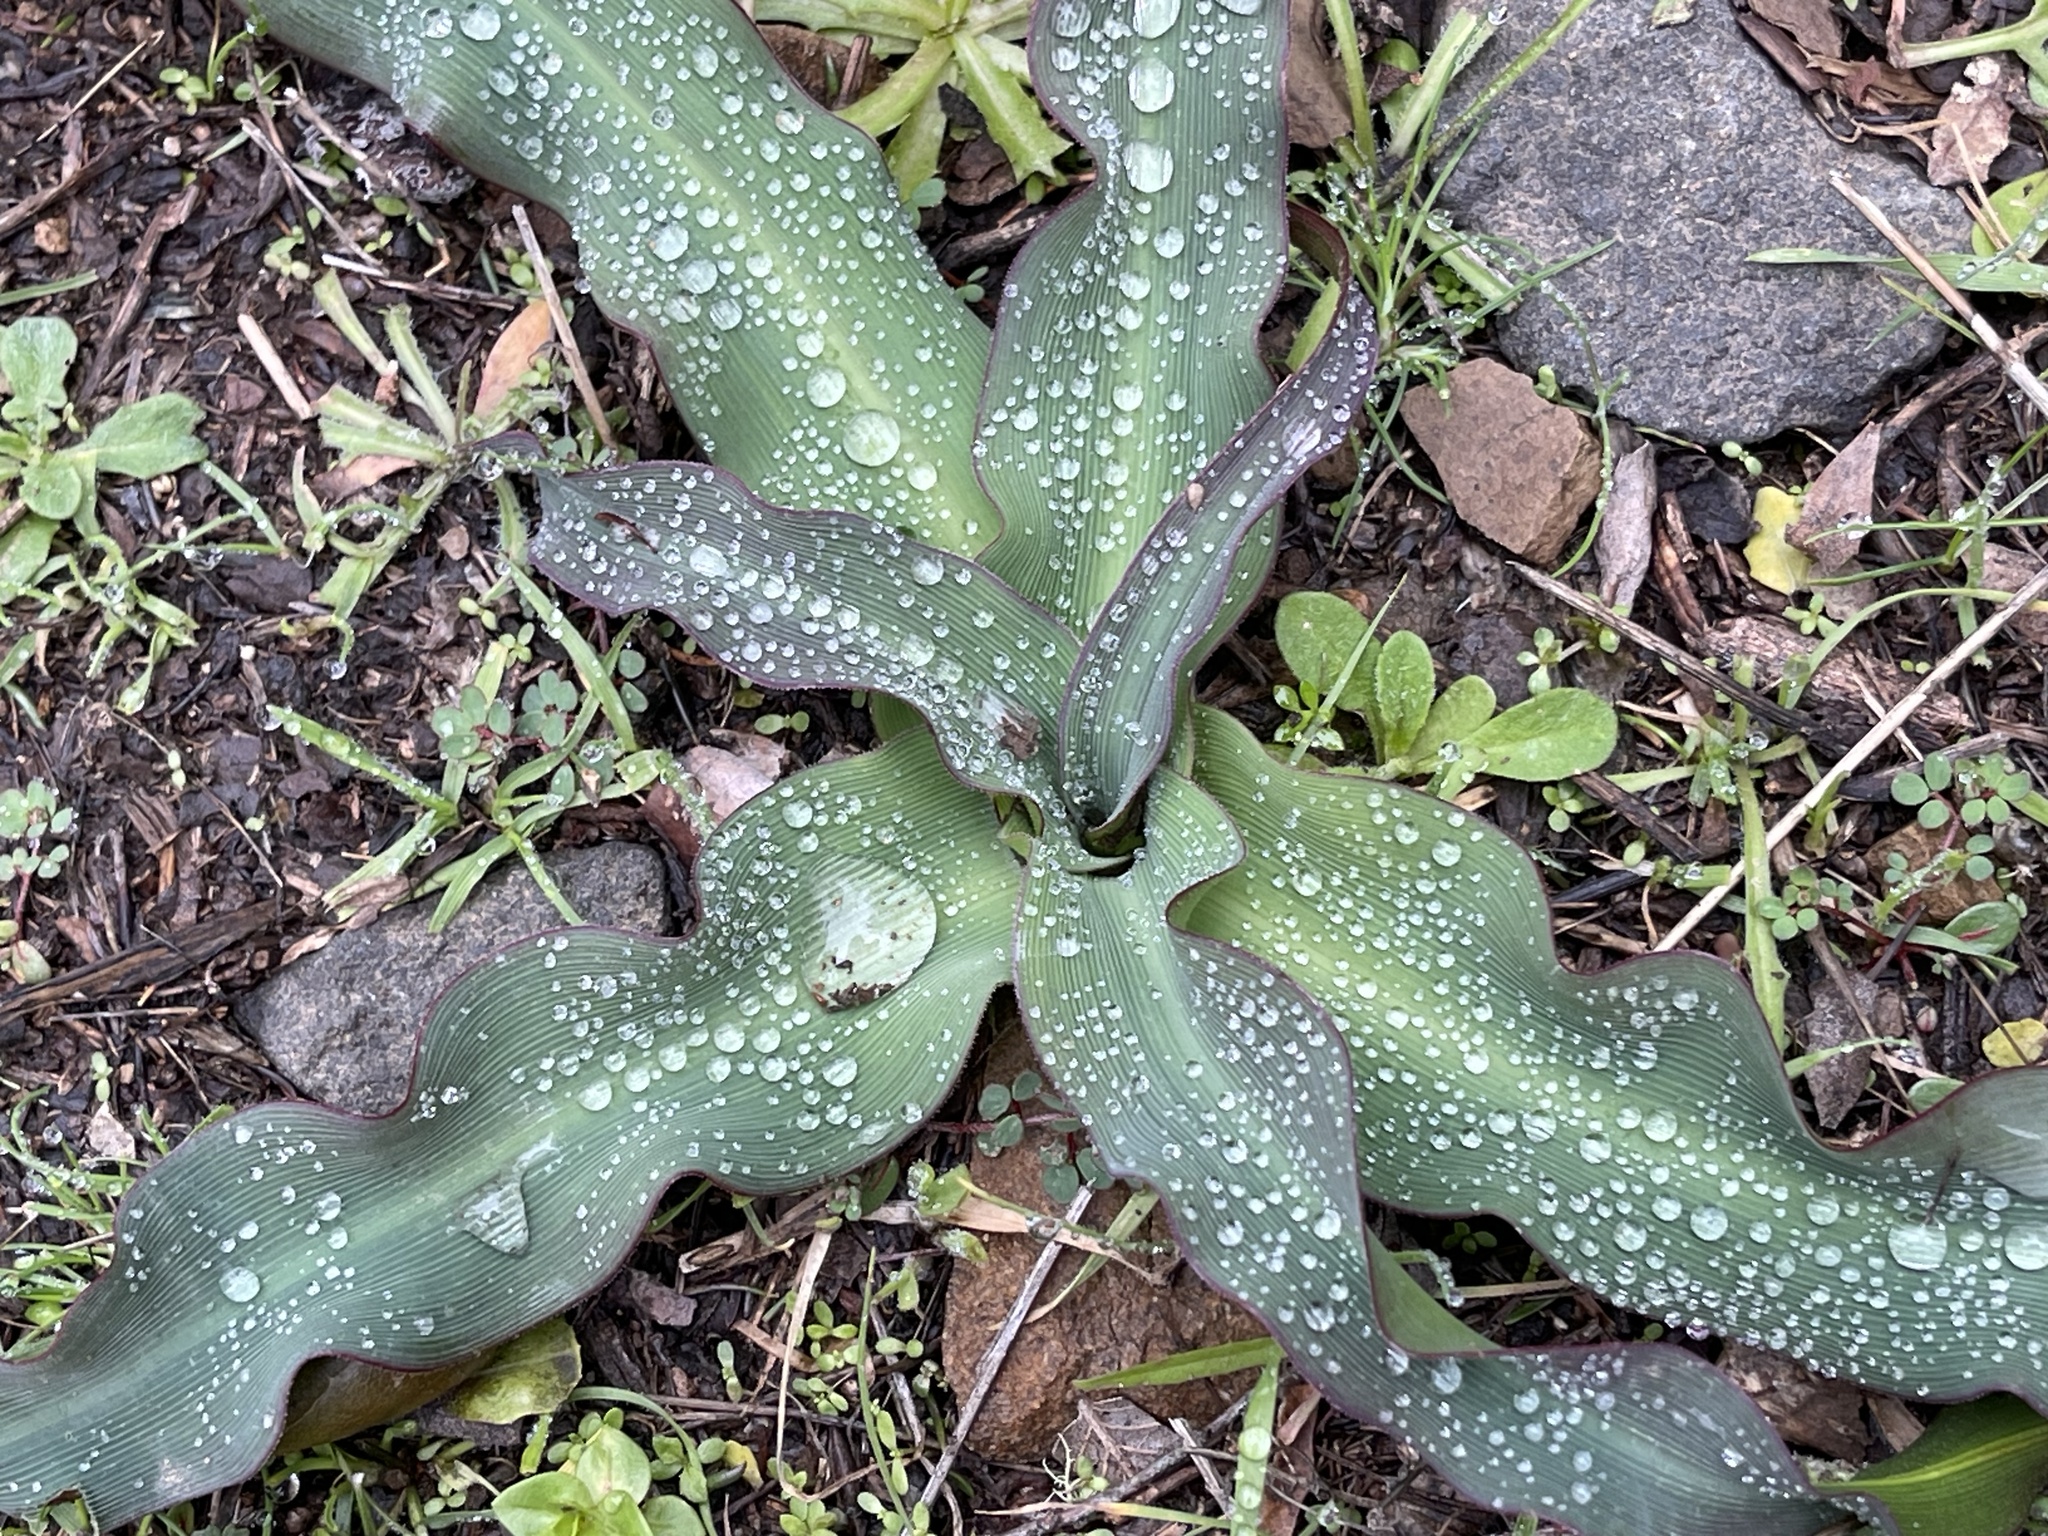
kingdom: Plantae
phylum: Tracheophyta
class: Liliopsida
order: Asparagales
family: Asparagaceae
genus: Chlorogalum
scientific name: Chlorogalum pomeridianum
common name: Amole
